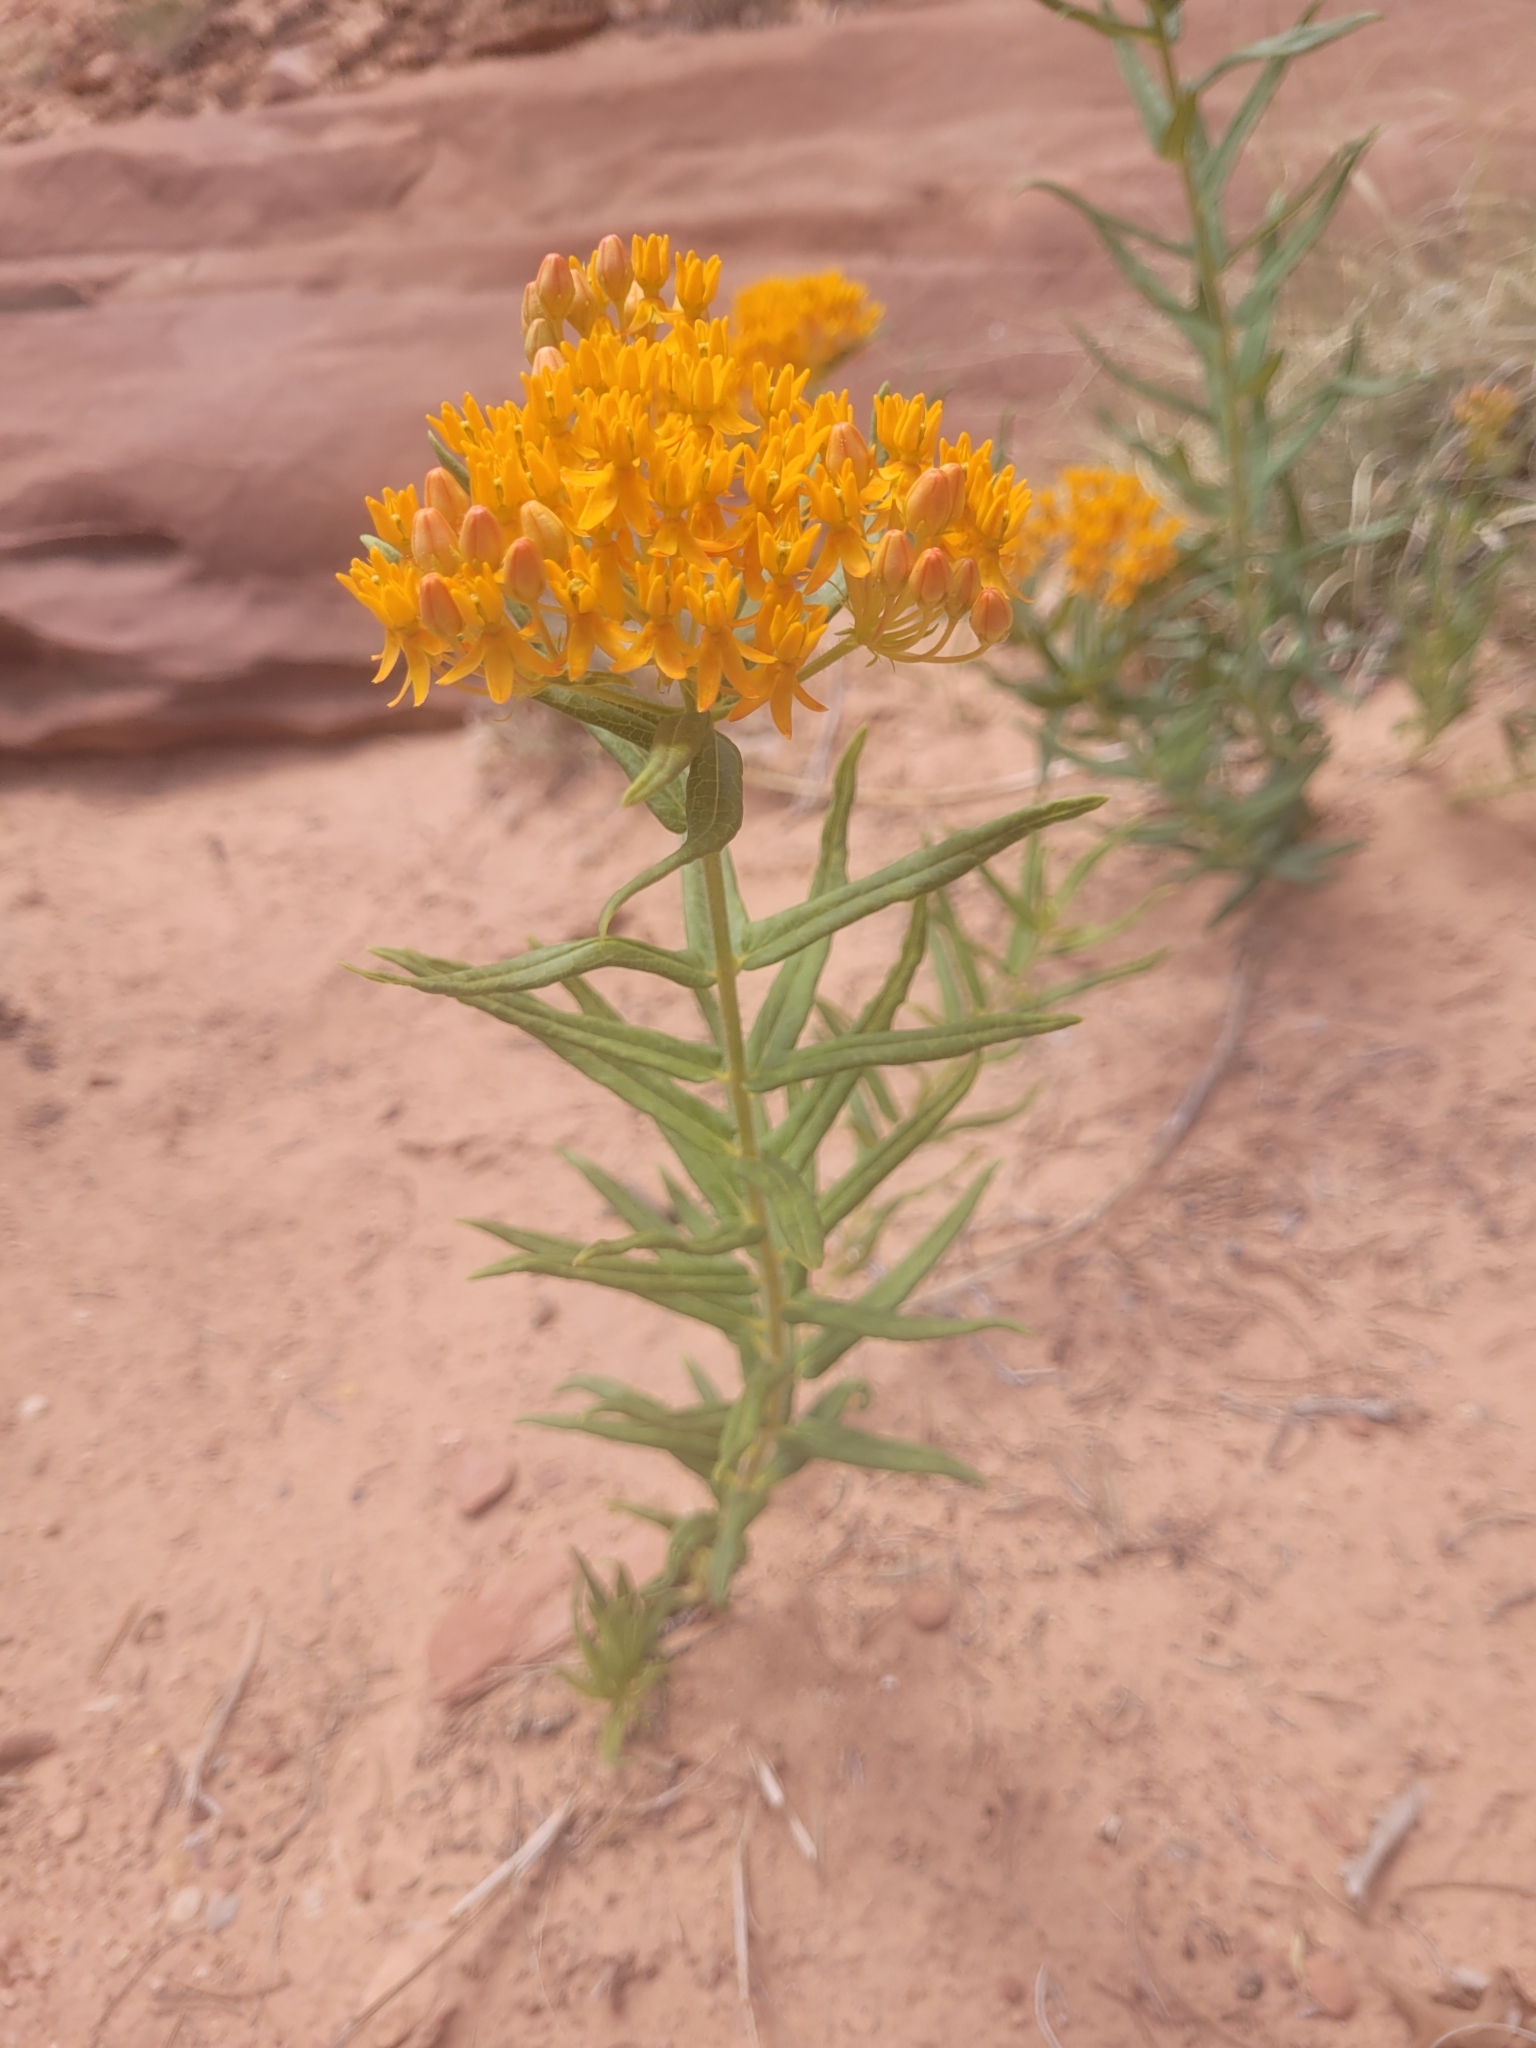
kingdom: Plantae
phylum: Tracheophyta
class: Magnoliopsida
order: Gentianales
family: Apocynaceae
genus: Asclepias
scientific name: Asclepias tuberosa
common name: Butterfly milkweed
